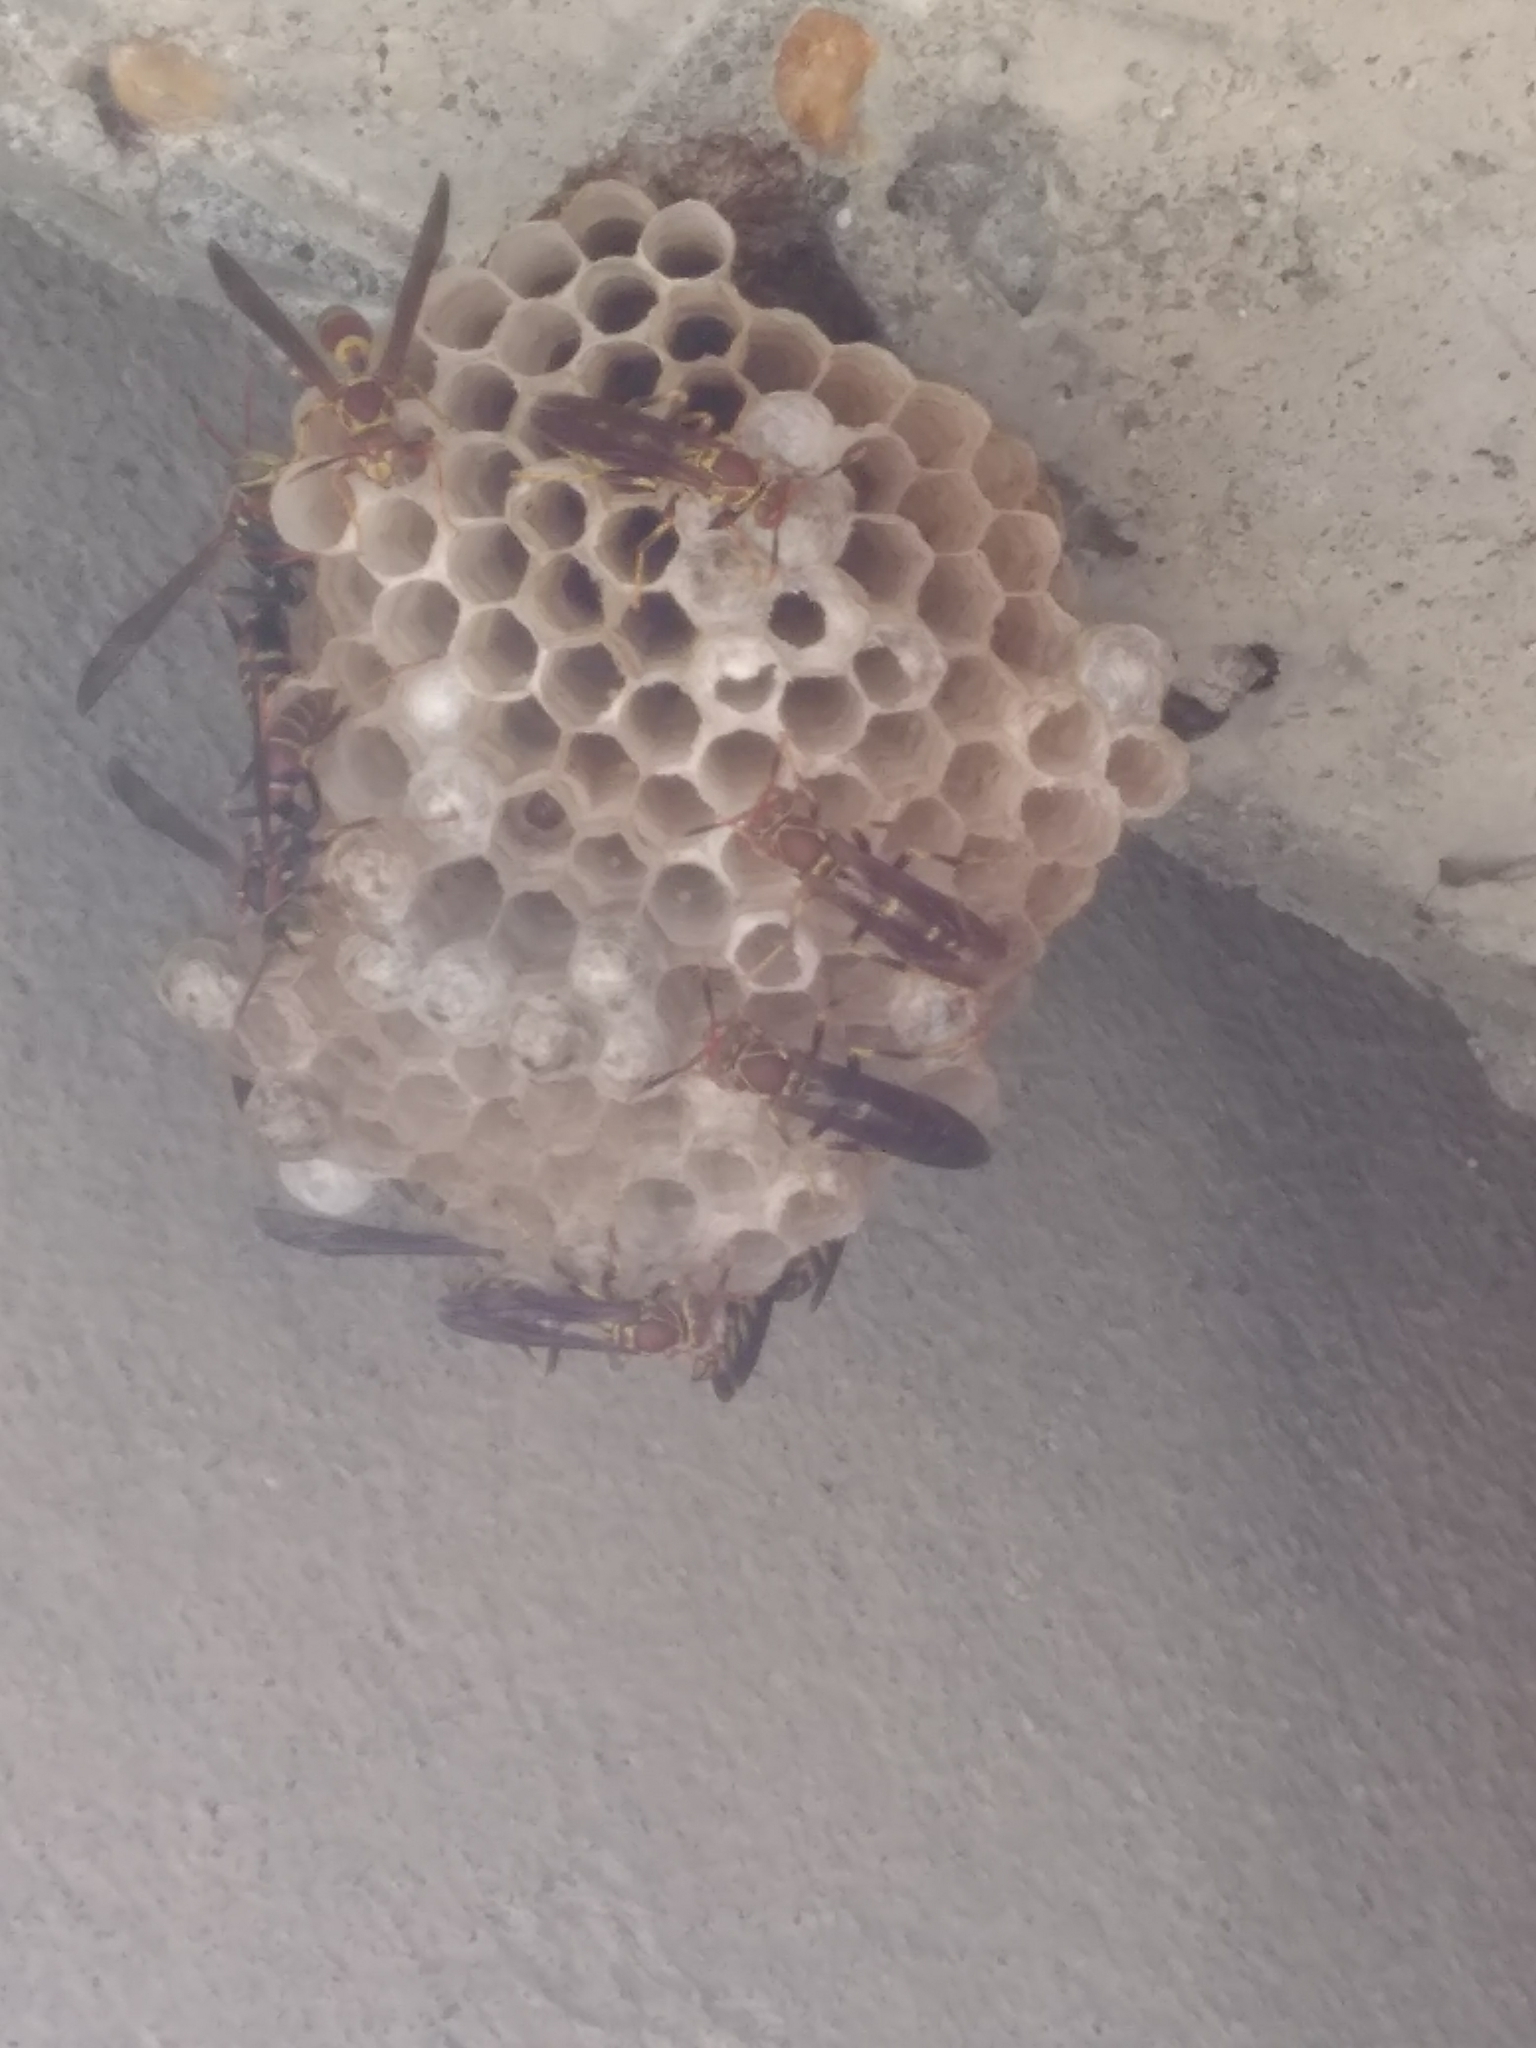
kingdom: Animalia
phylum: Arthropoda
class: Insecta
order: Hymenoptera
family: Eumenidae
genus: Polistes
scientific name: Polistes exclamans
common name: Paper wasp
